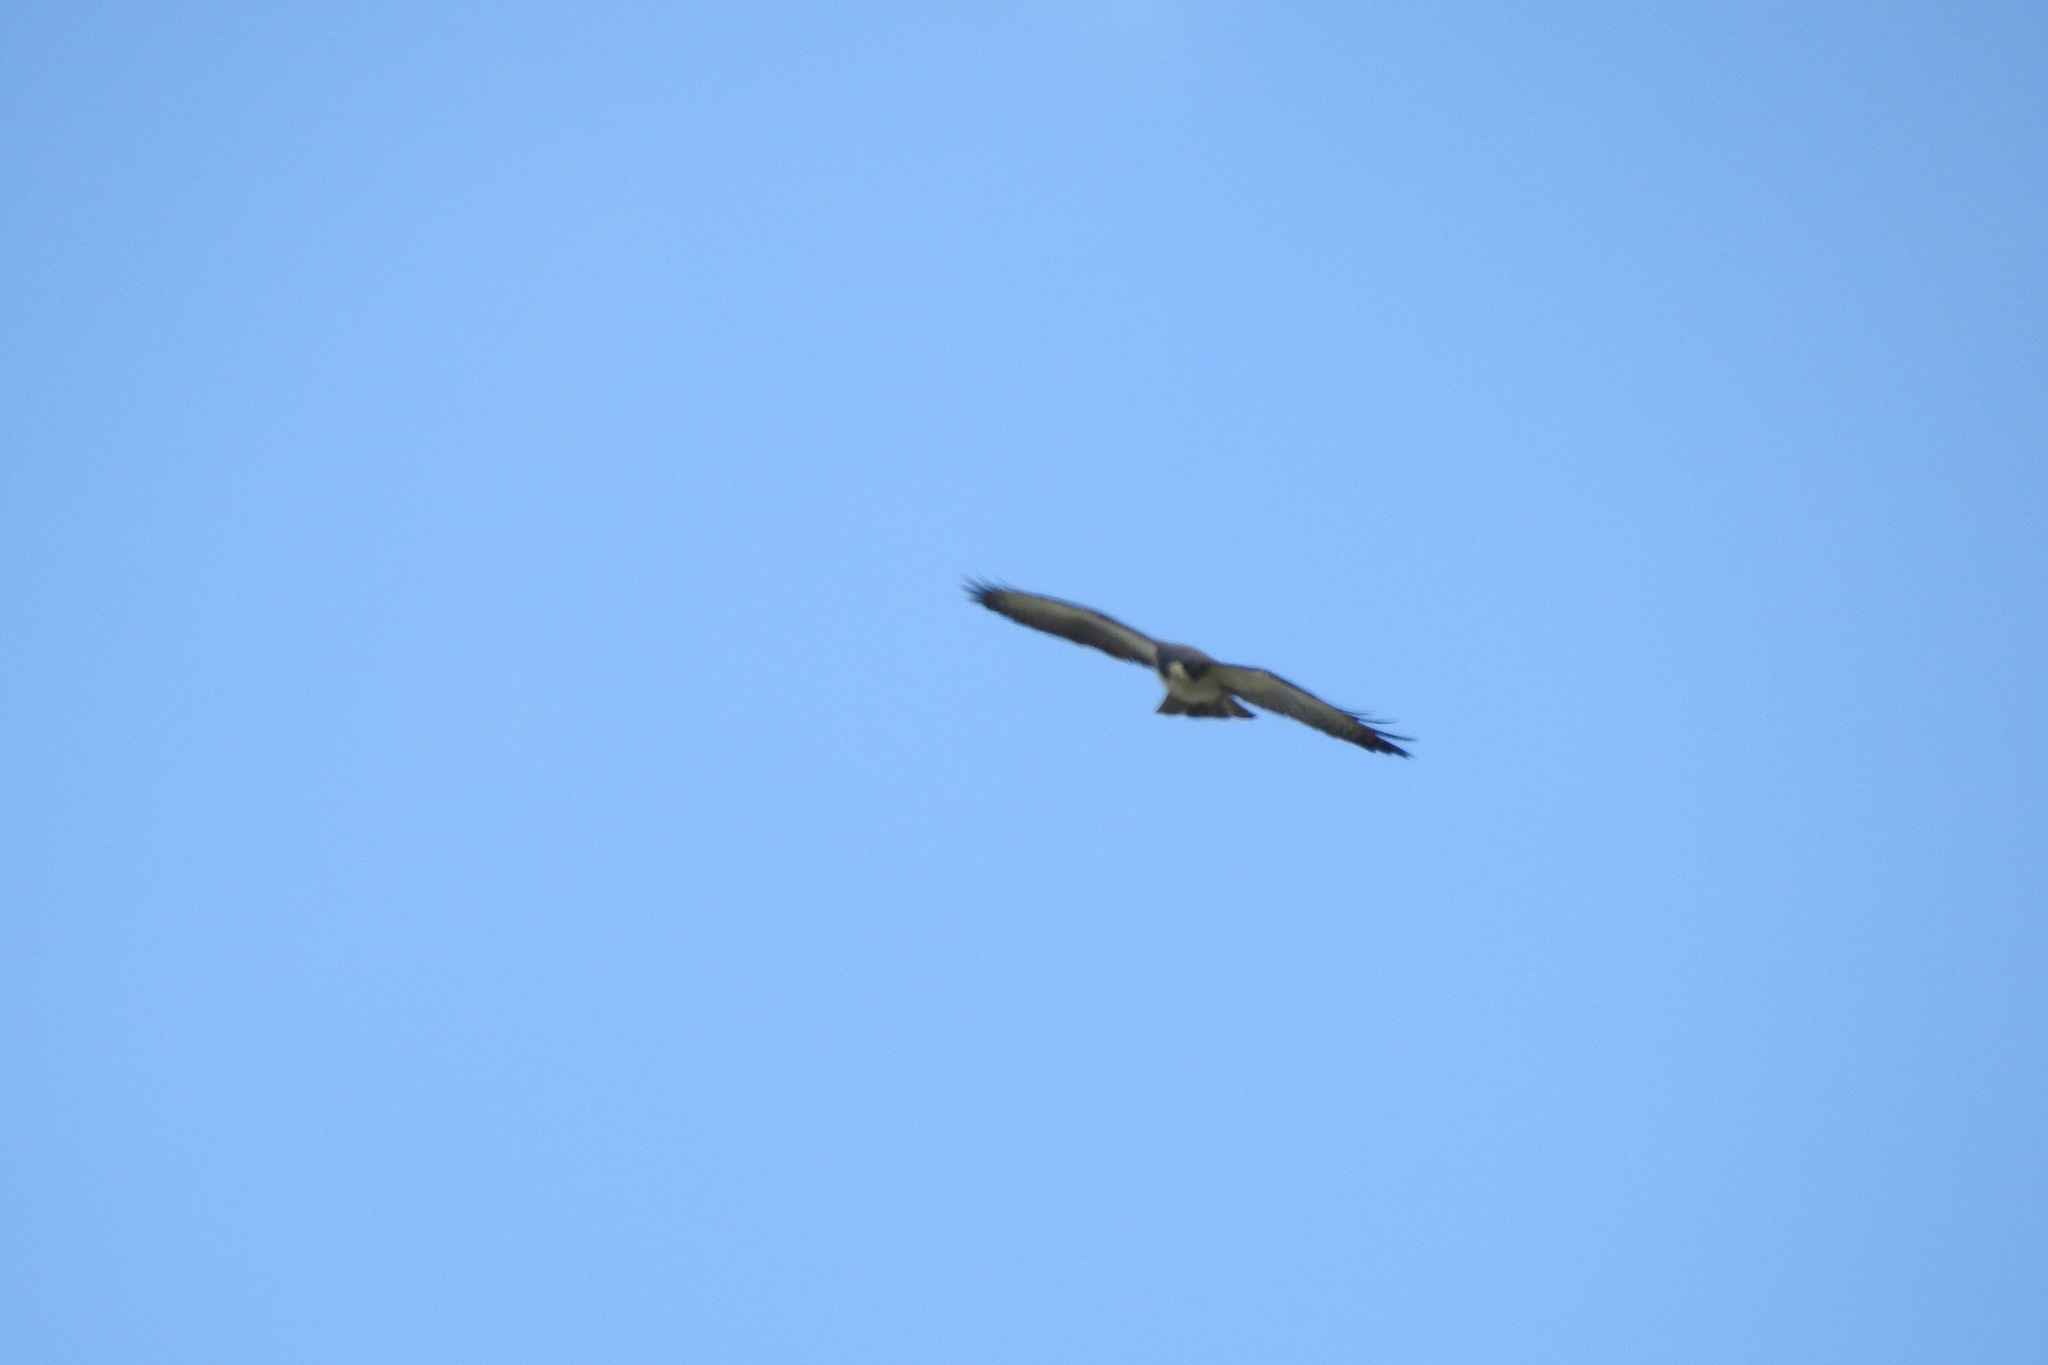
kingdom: Animalia
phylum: Chordata
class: Aves
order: Accipitriformes
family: Accipitridae
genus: Buteo
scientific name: Buteo brachyurus
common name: Short-tailed hawk
